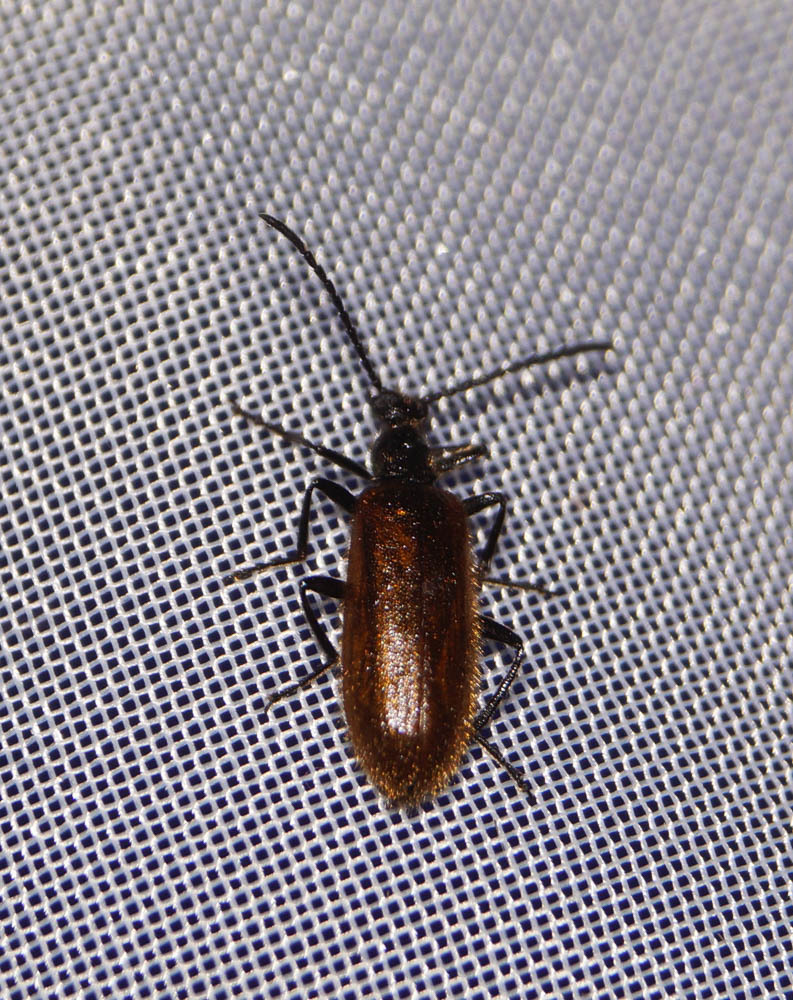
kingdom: Animalia
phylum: Arthropoda
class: Insecta
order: Coleoptera
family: Tenebrionidae
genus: Lagria
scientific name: Lagria hirta
